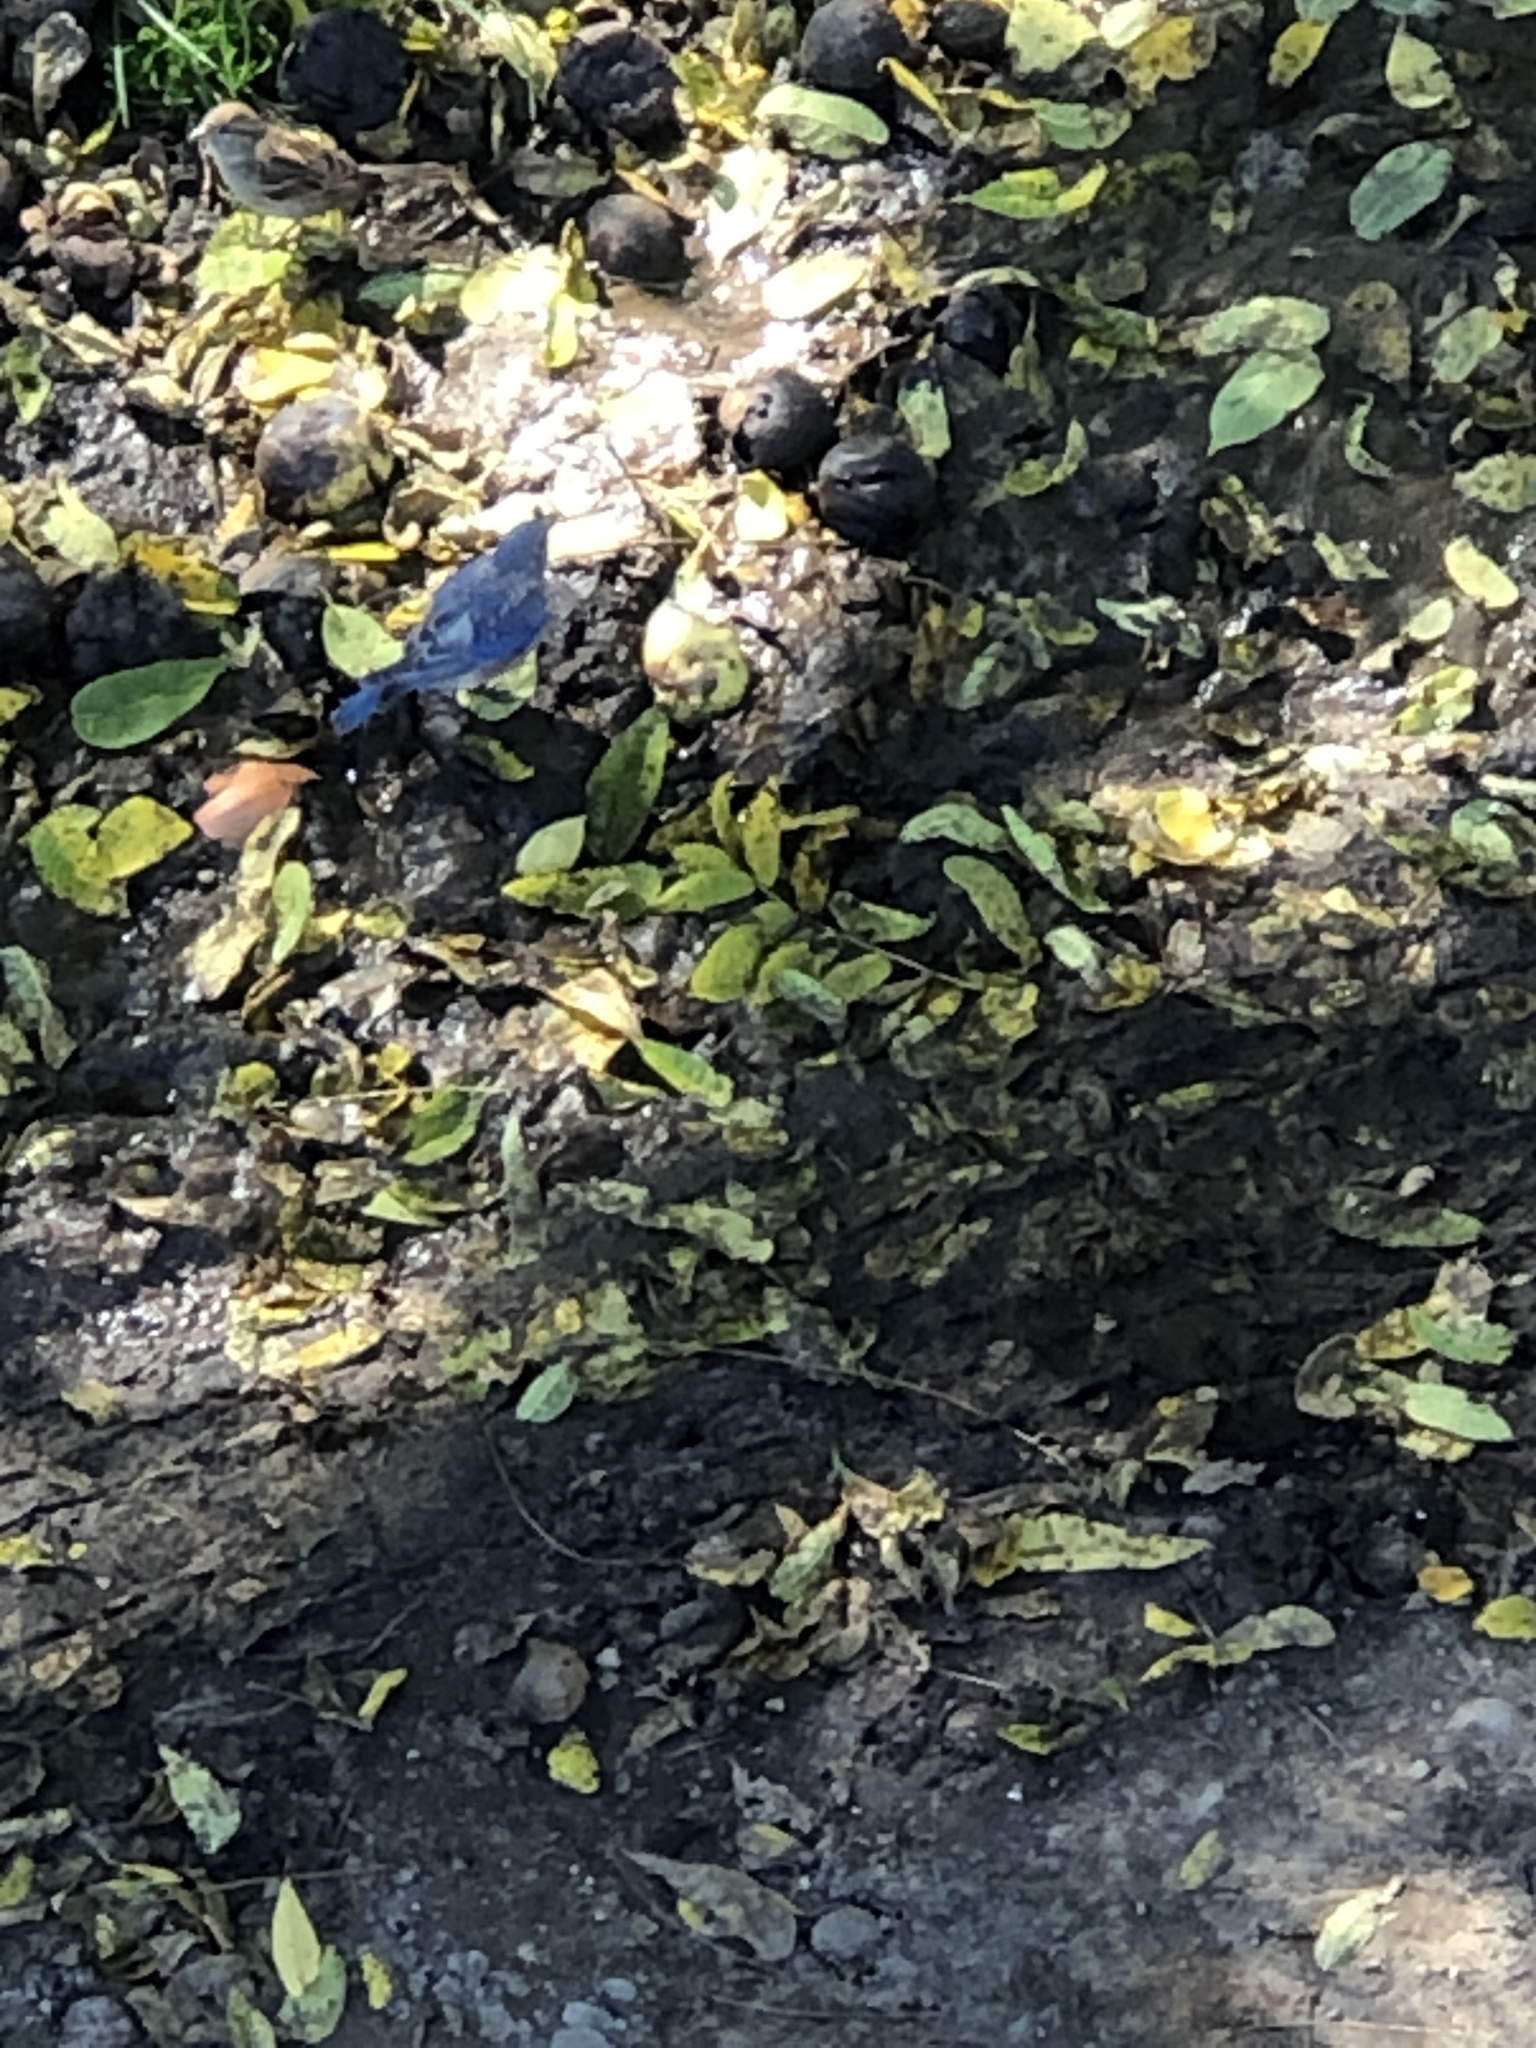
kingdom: Animalia
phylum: Chordata
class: Aves
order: Passeriformes
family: Turdidae
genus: Sialia
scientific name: Sialia sialis
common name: Eastern bluebird
